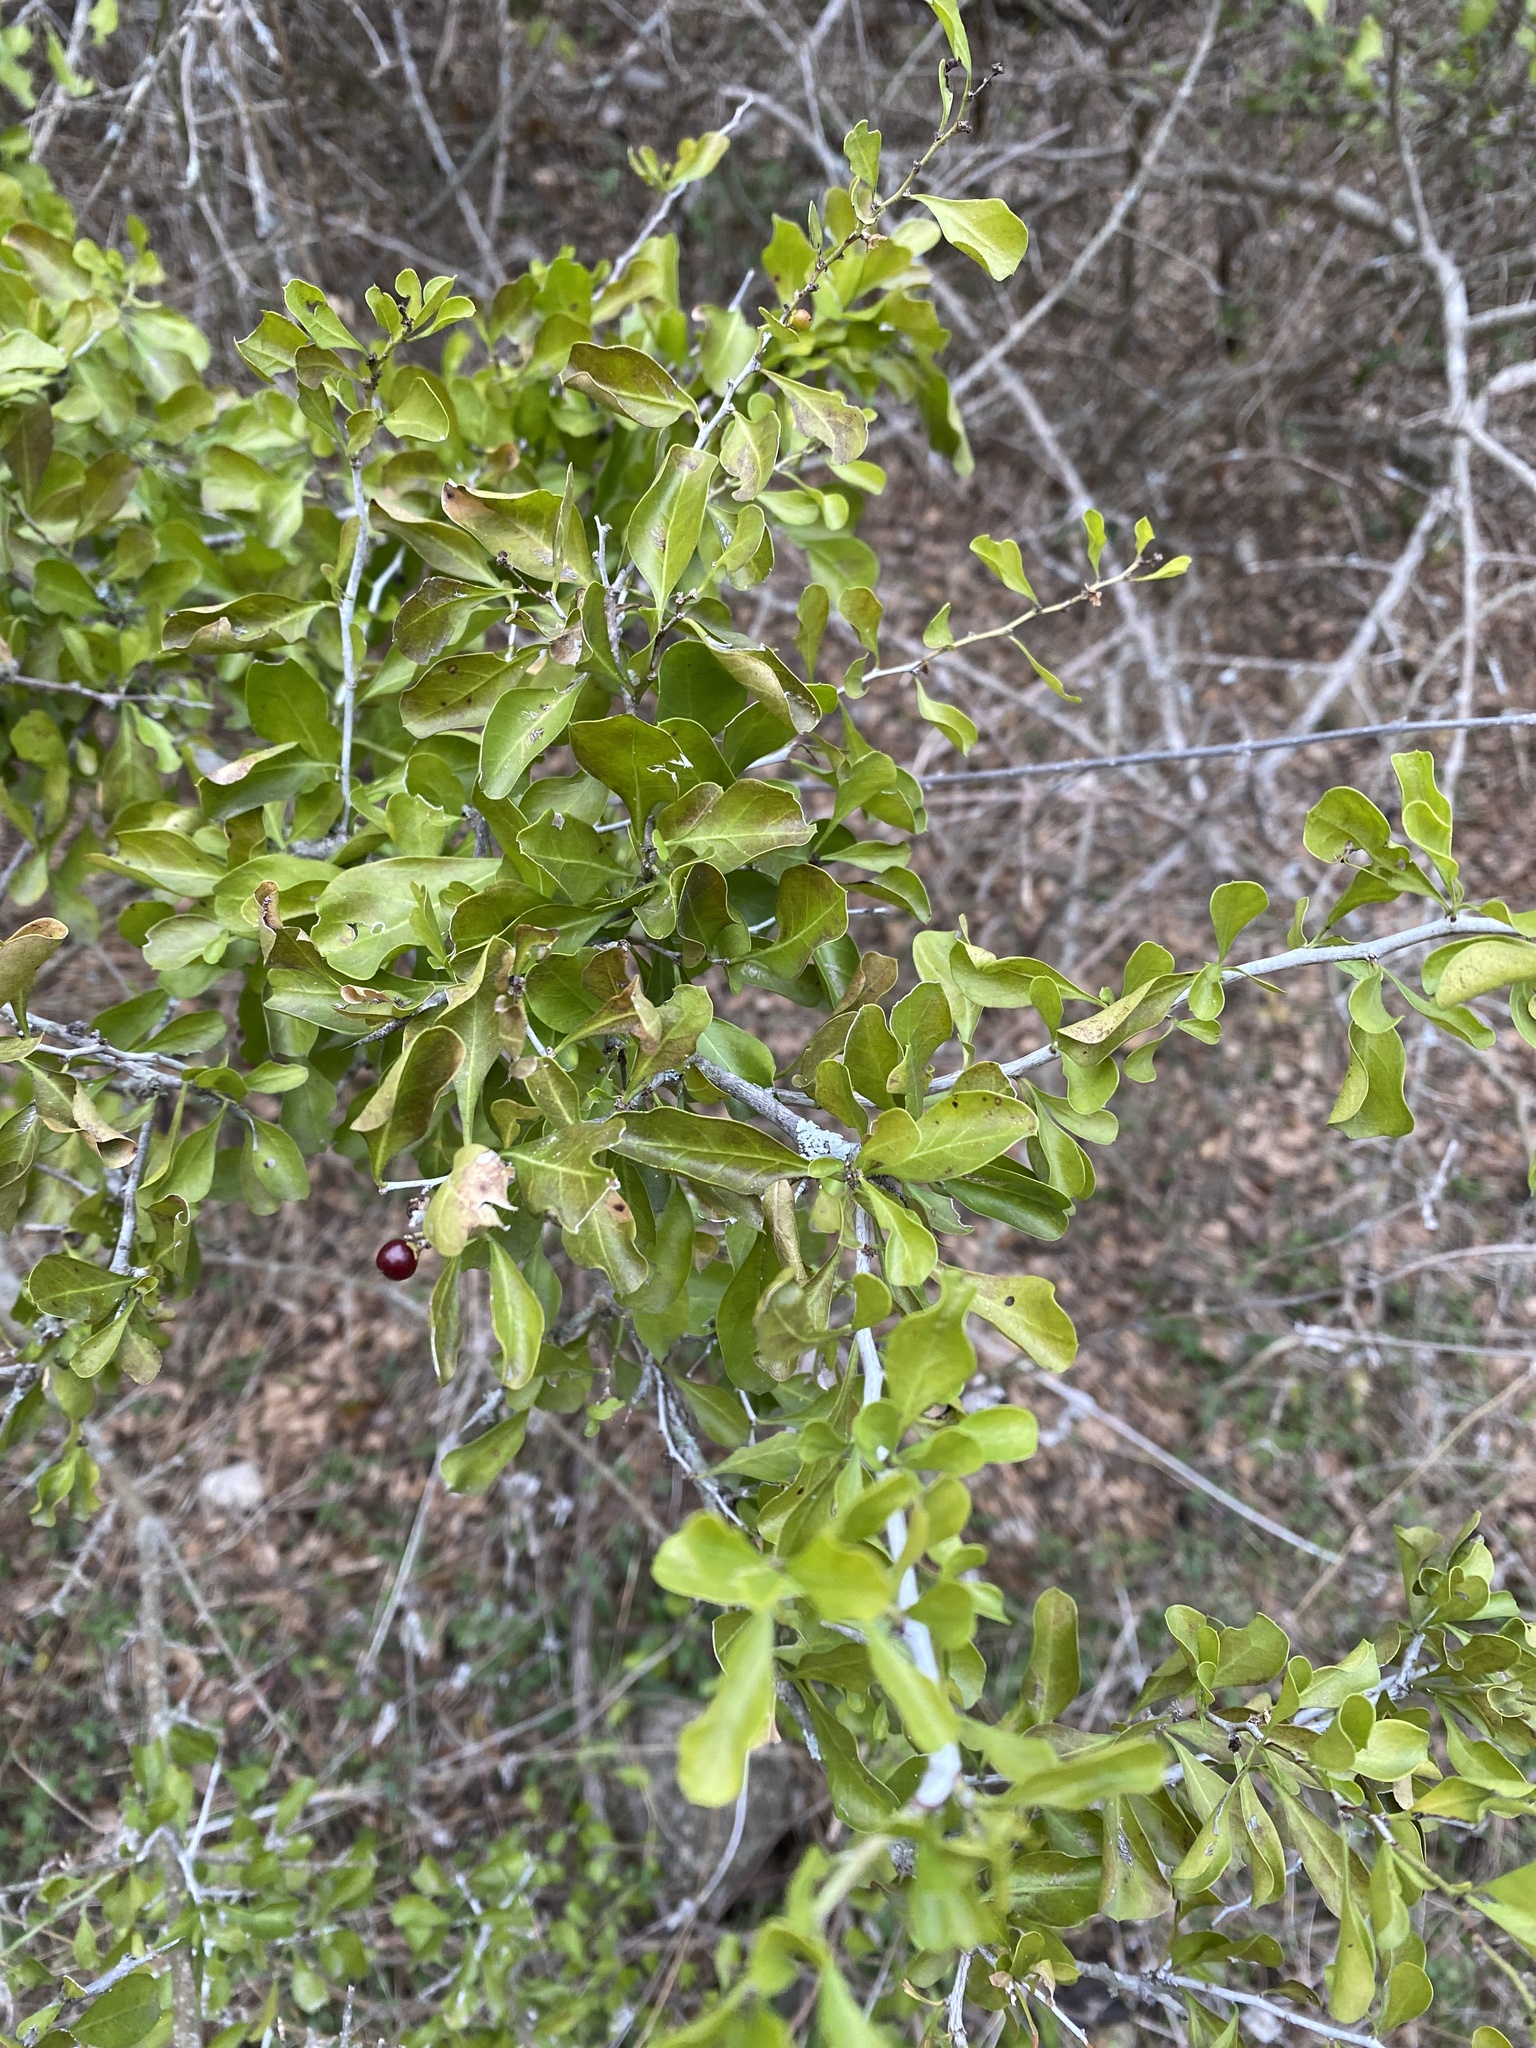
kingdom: Plantae
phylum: Tracheophyta
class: Magnoliopsida
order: Rosales
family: Rhamnaceae
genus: Condalia
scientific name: Condalia hookeri
